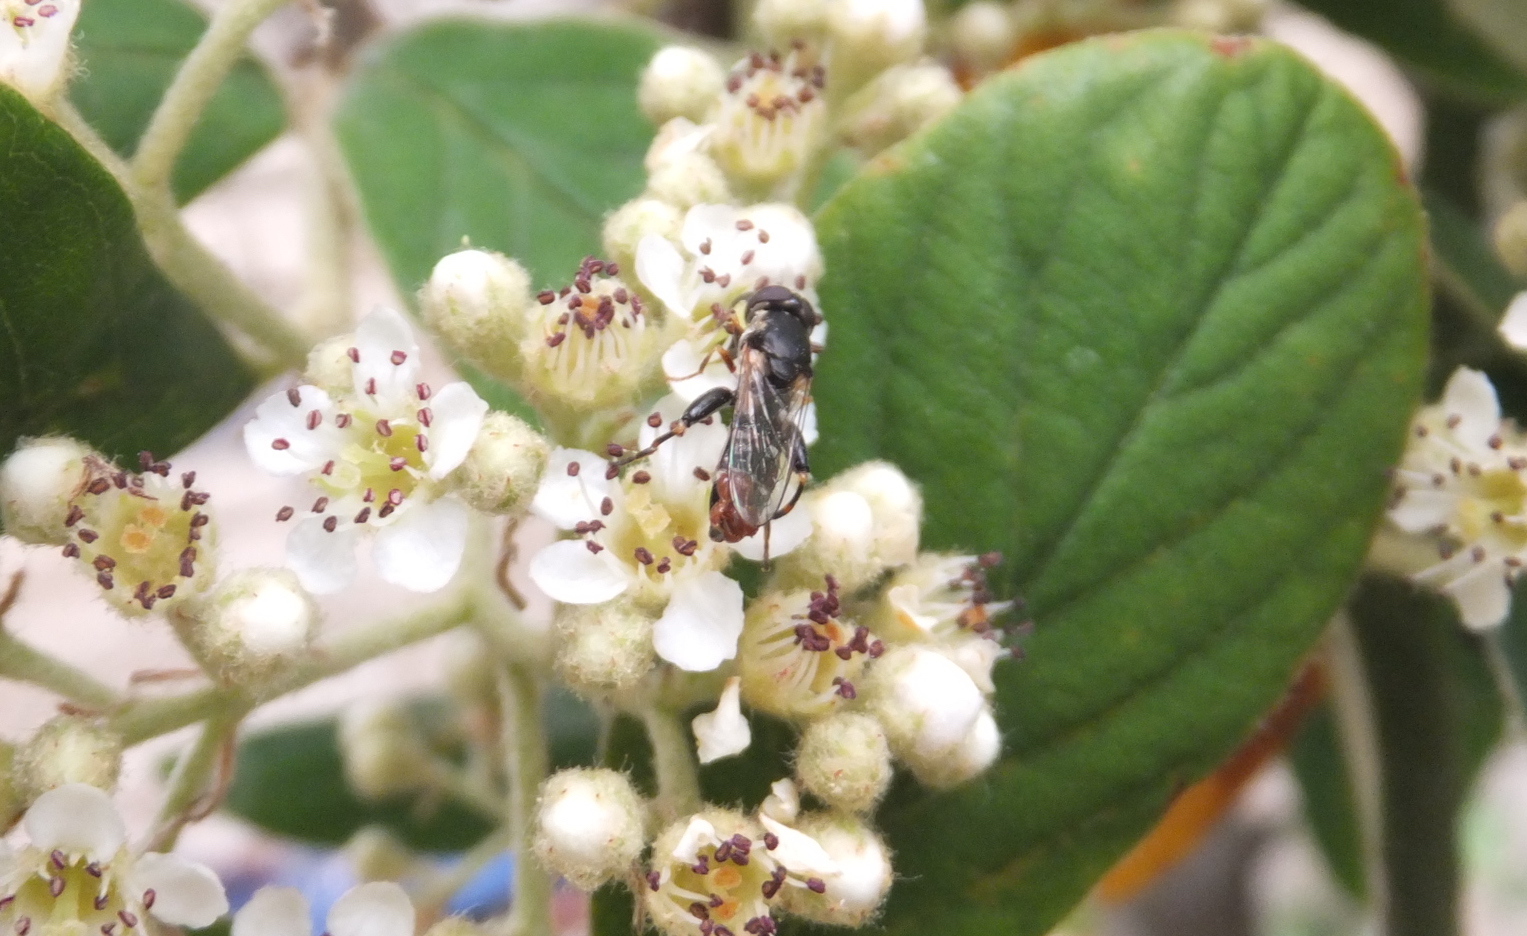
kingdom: Animalia
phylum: Arthropoda
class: Insecta
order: Diptera
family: Syrphidae
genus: Syritta
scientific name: Syritta pipiens
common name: Hover fly
